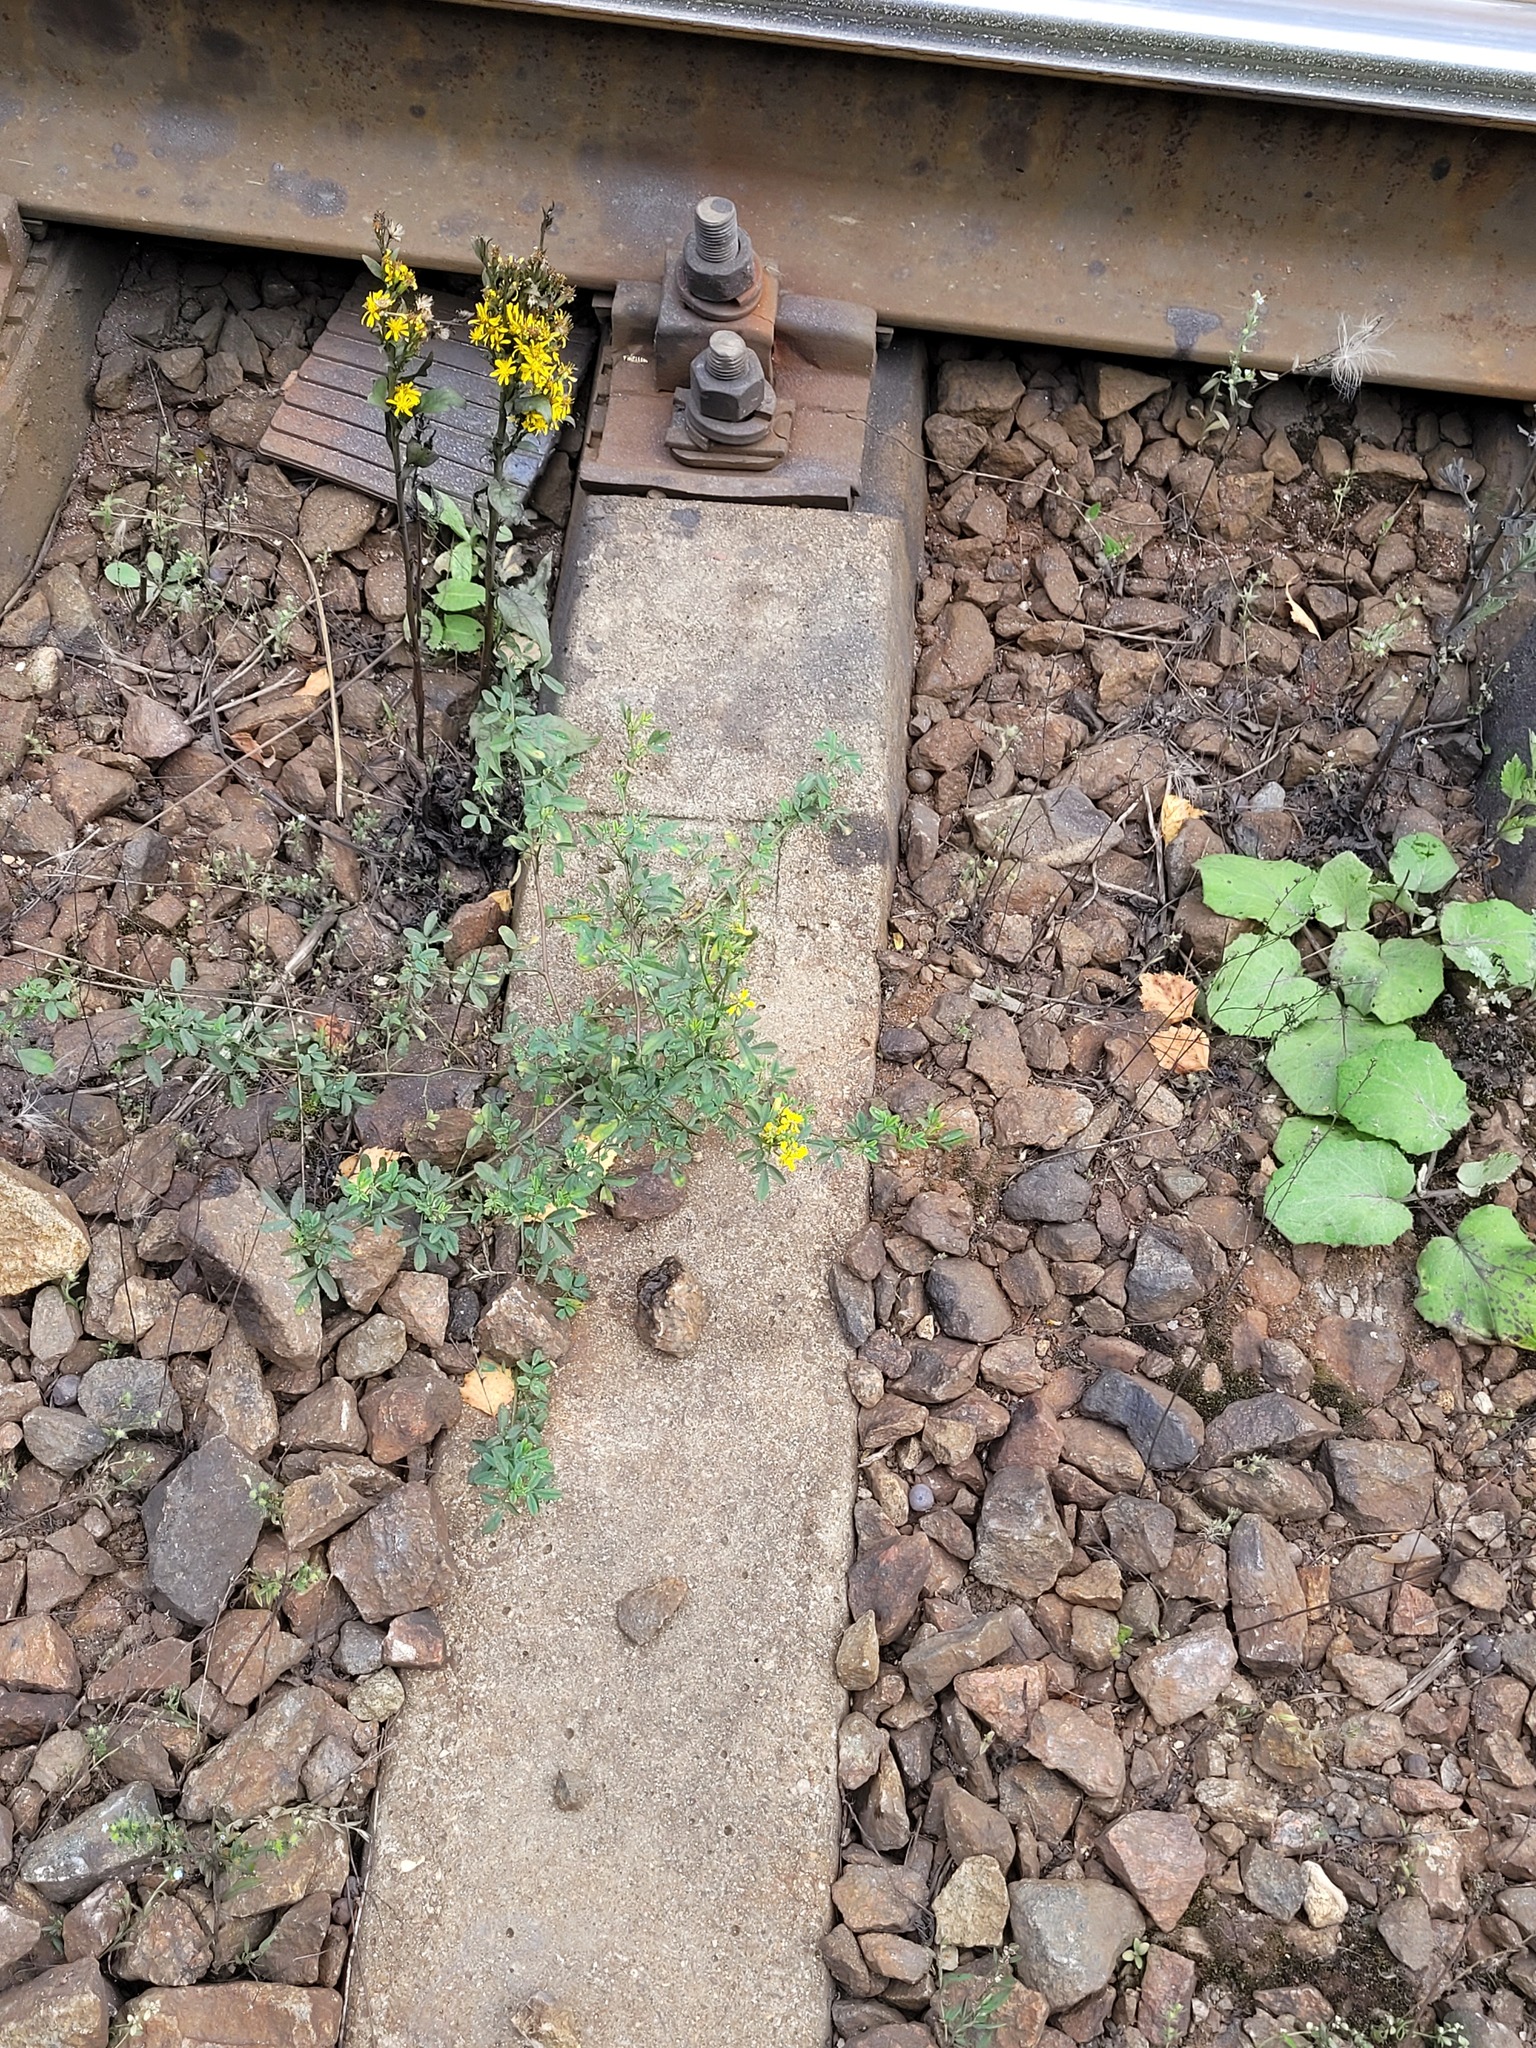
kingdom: Plantae
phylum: Tracheophyta
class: Magnoliopsida
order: Fabales
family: Fabaceae
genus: Melilotus
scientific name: Melilotus officinalis
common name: Sweetclover
